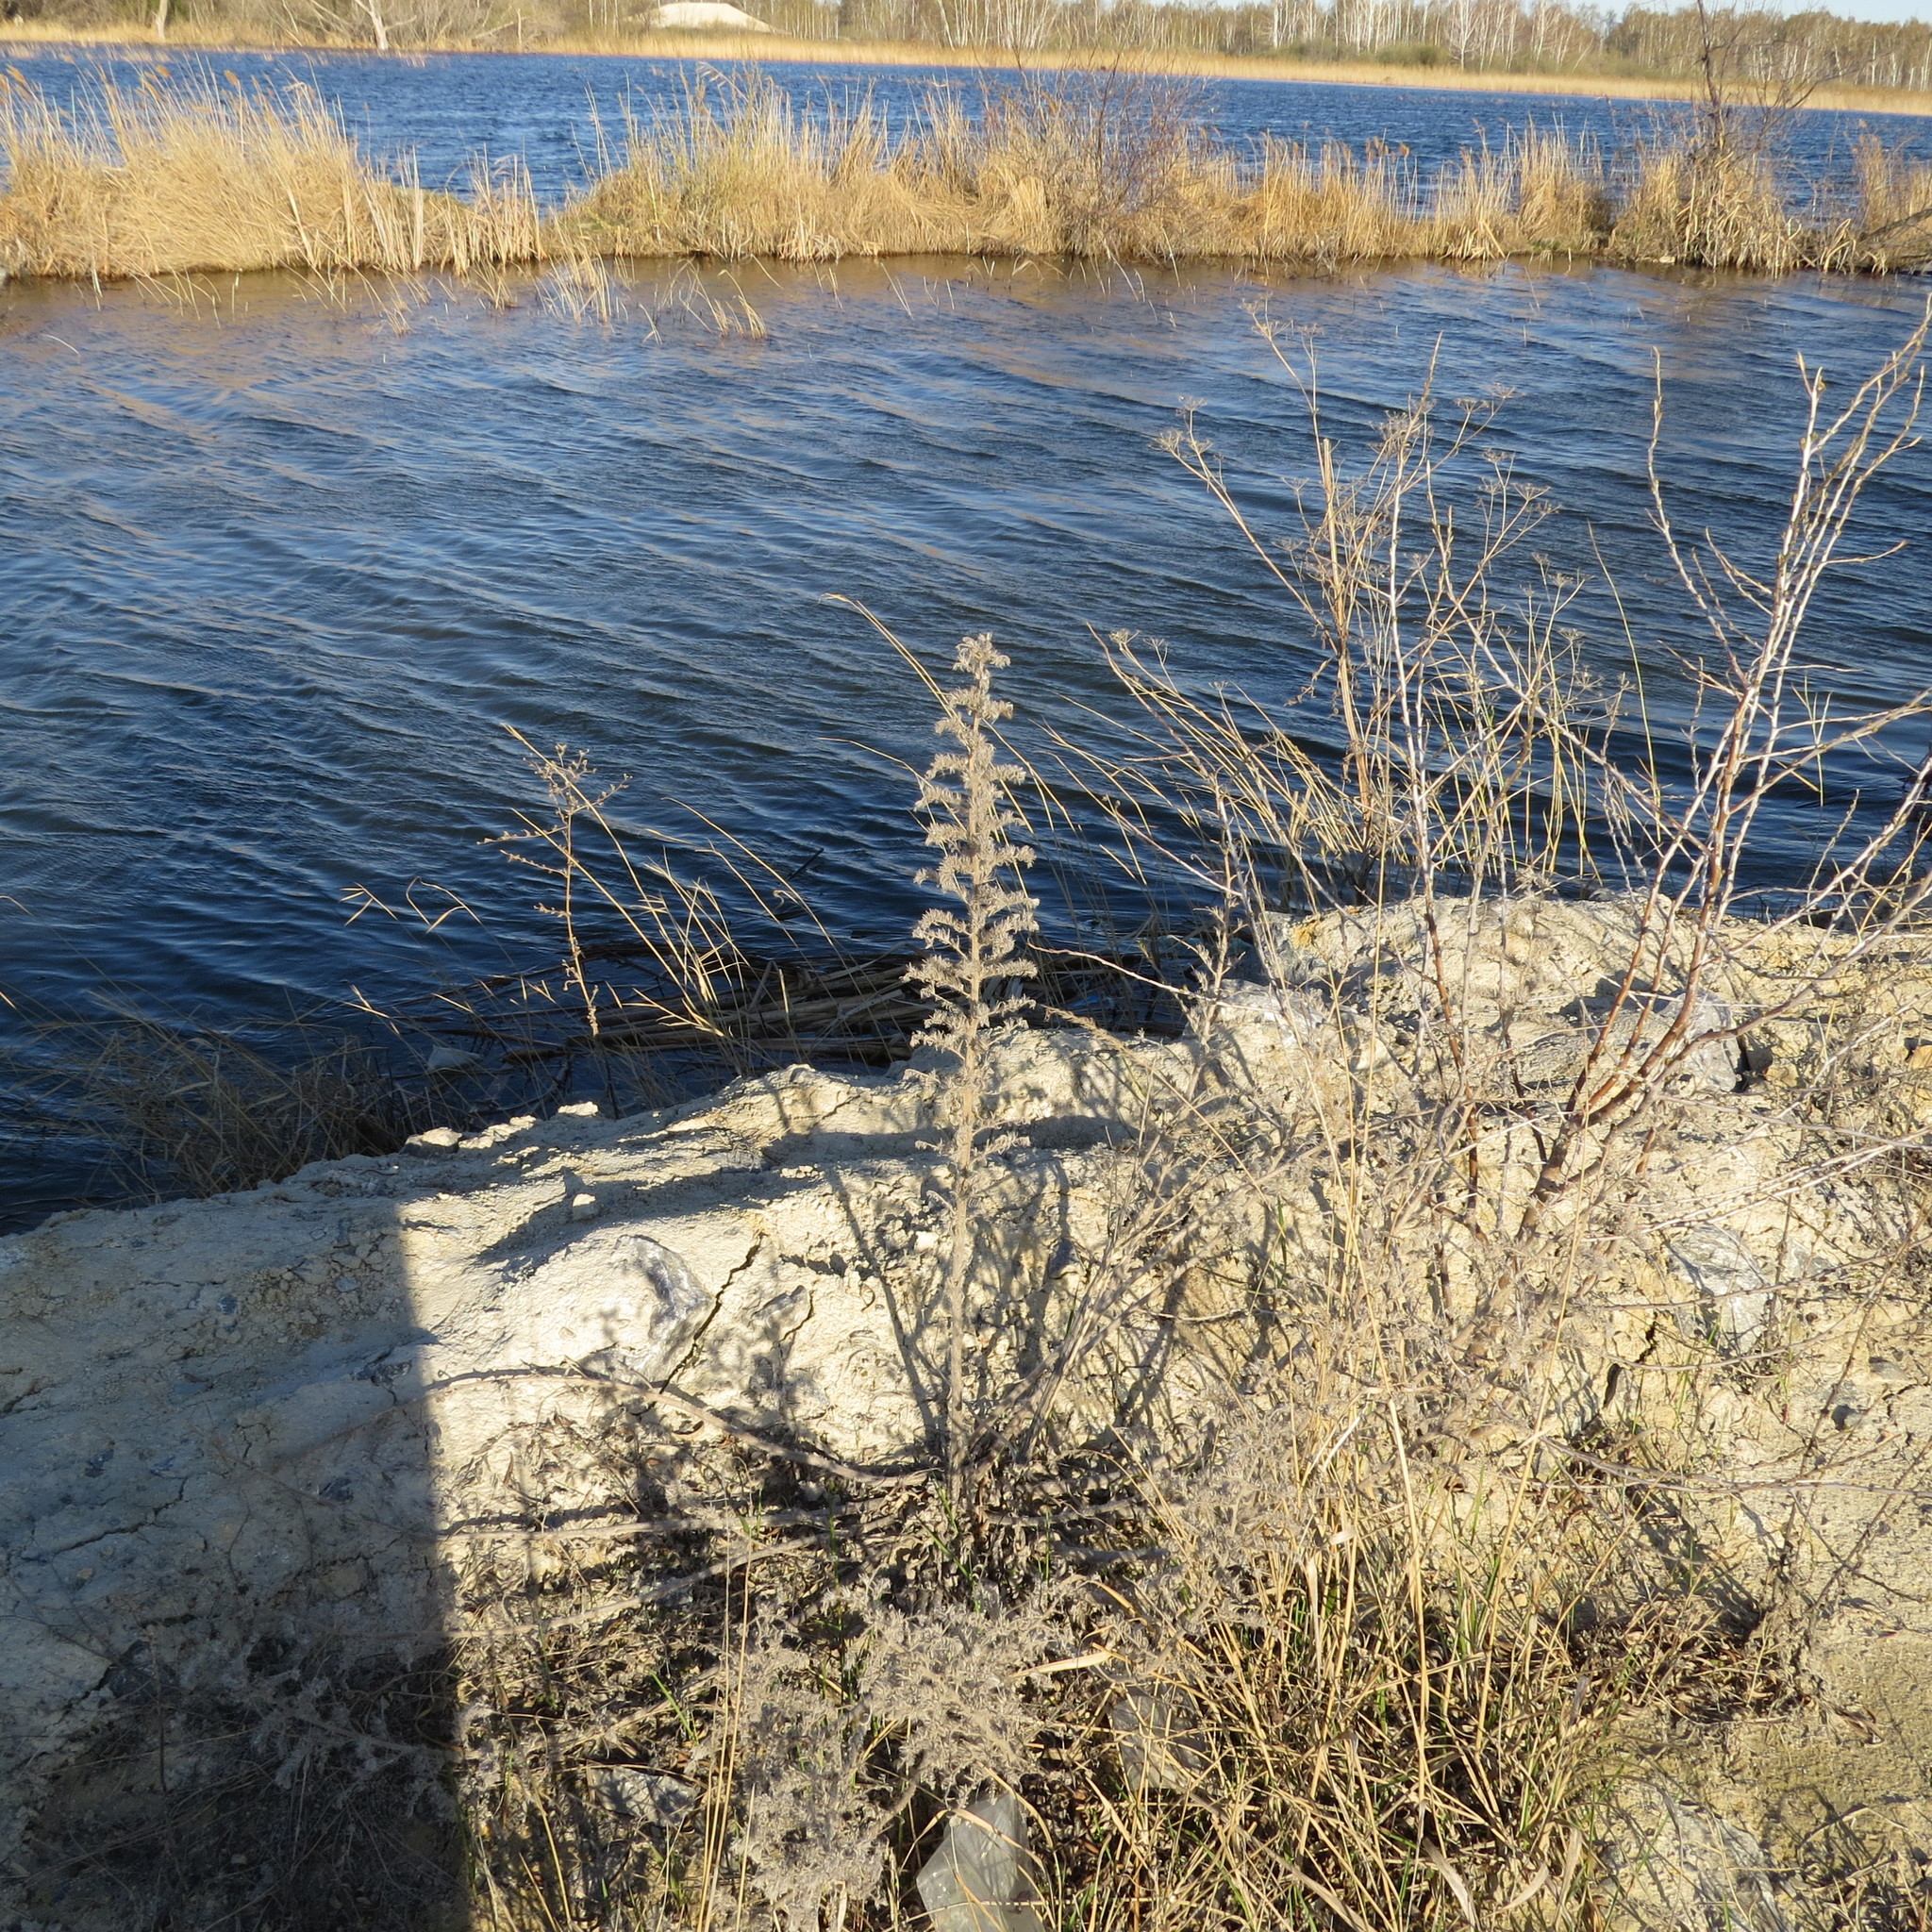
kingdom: Plantae
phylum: Tracheophyta
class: Magnoliopsida
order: Boraginales
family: Boraginaceae
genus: Echium
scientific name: Echium vulgare
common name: Common viper's bugloss
